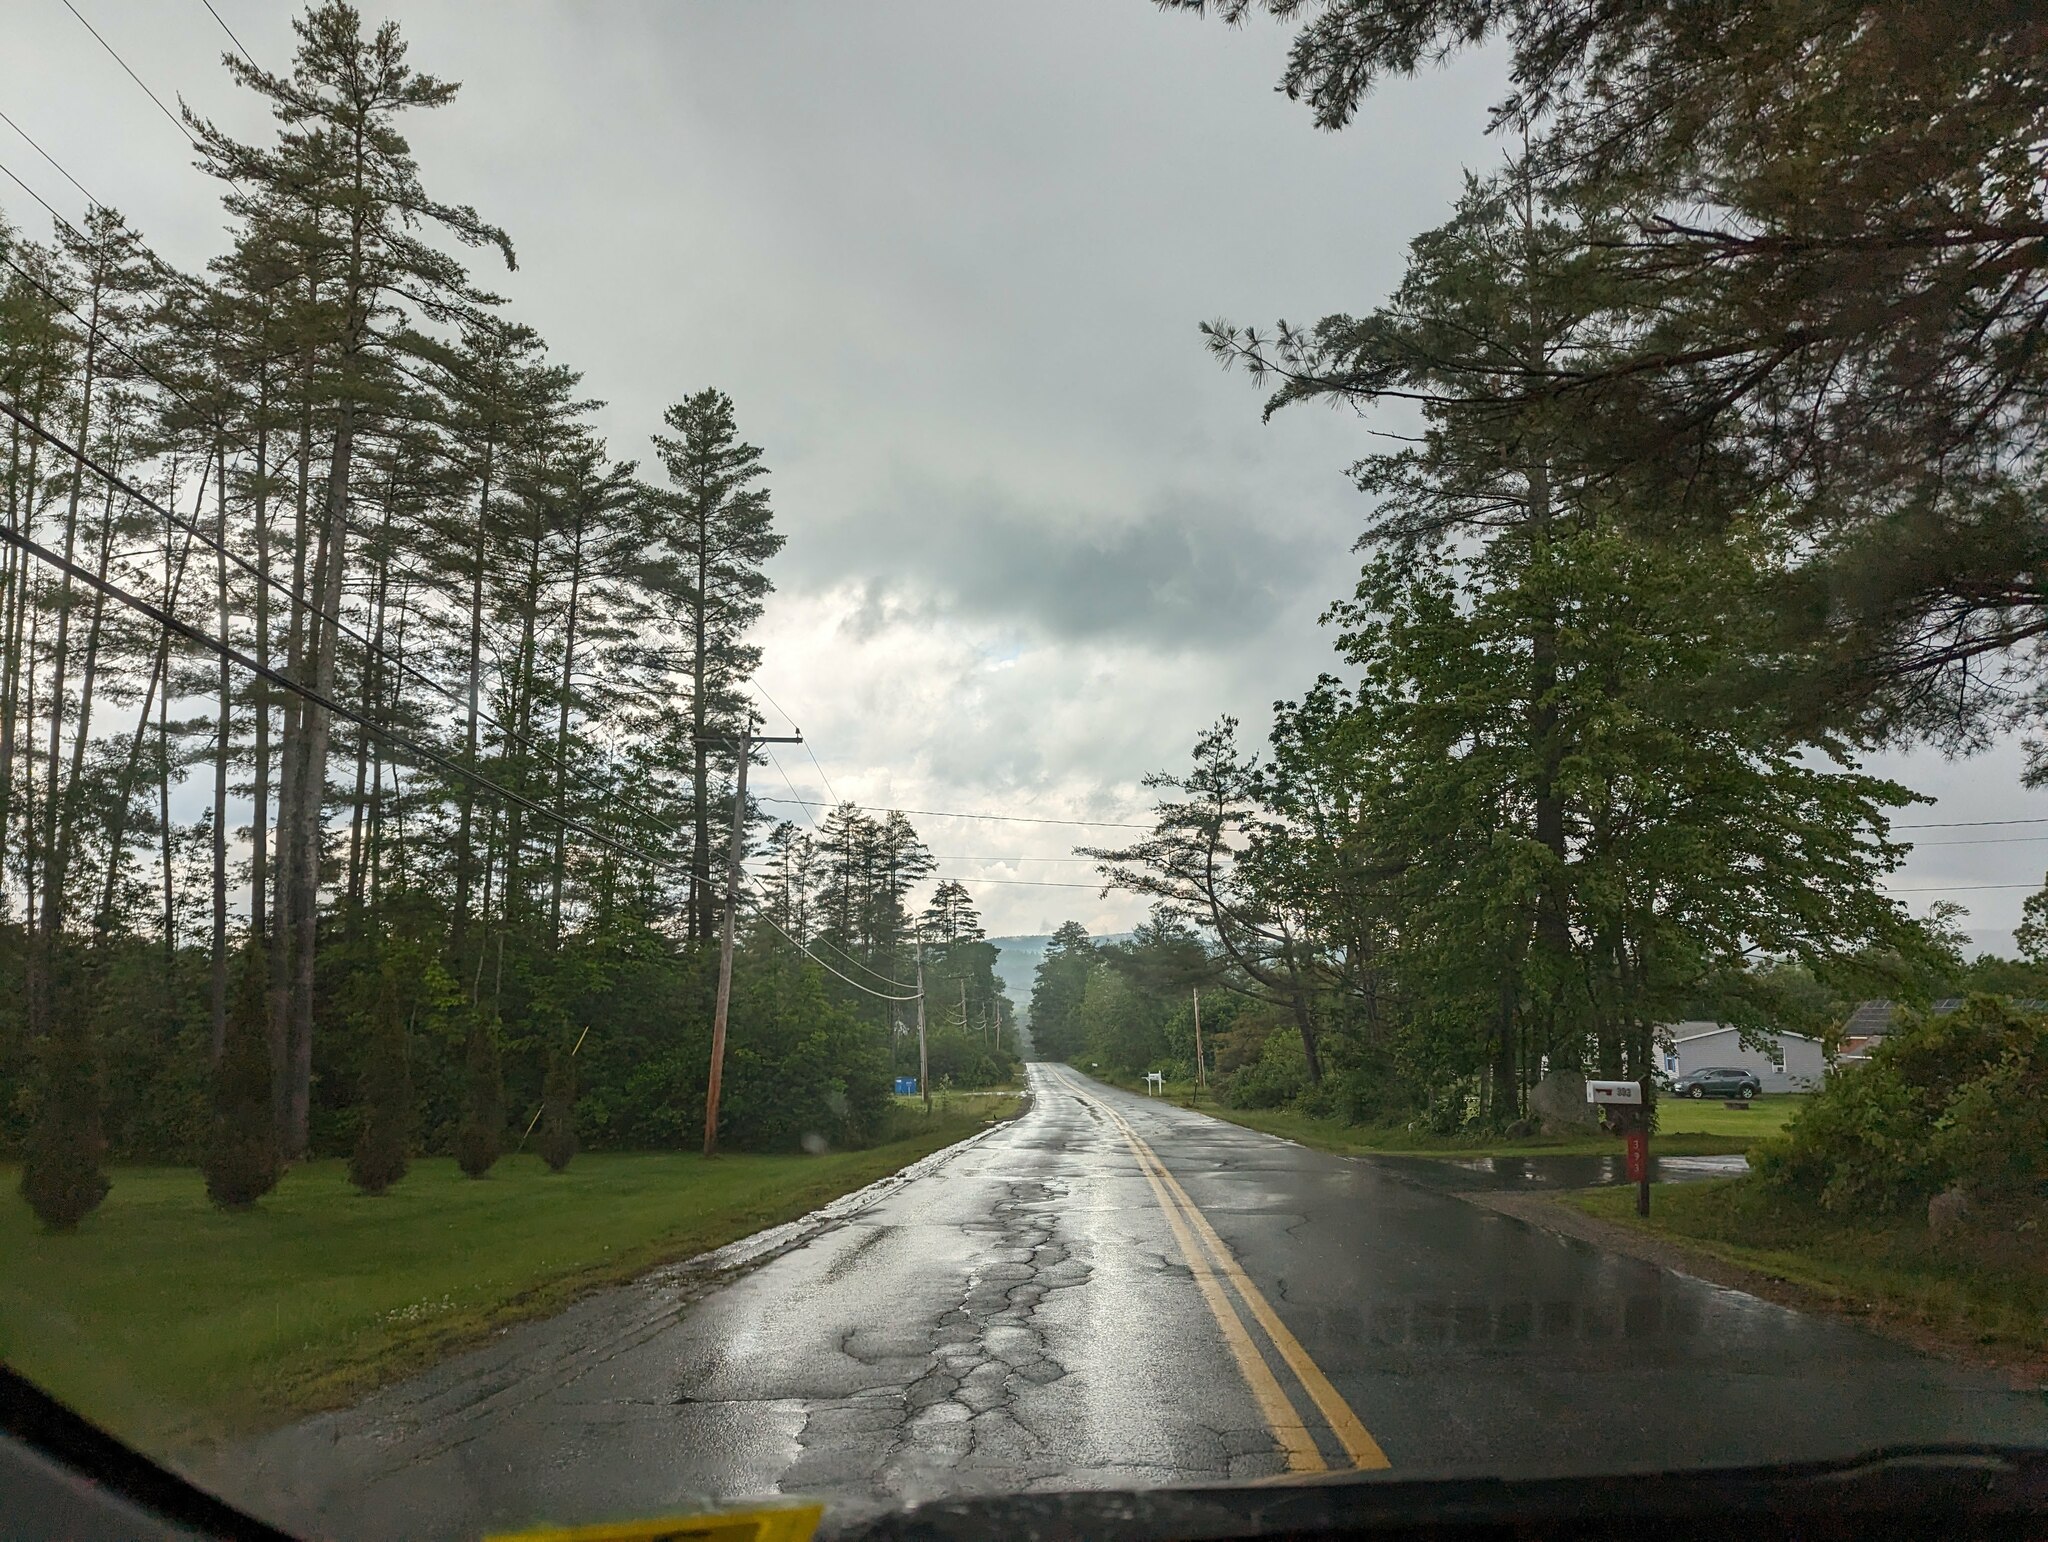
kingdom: Plantae
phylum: Tracheophyta
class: Pinopsida
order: Pinales
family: Pinaceae
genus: Pinus
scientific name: Pinus strobus
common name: Weymouth pine
